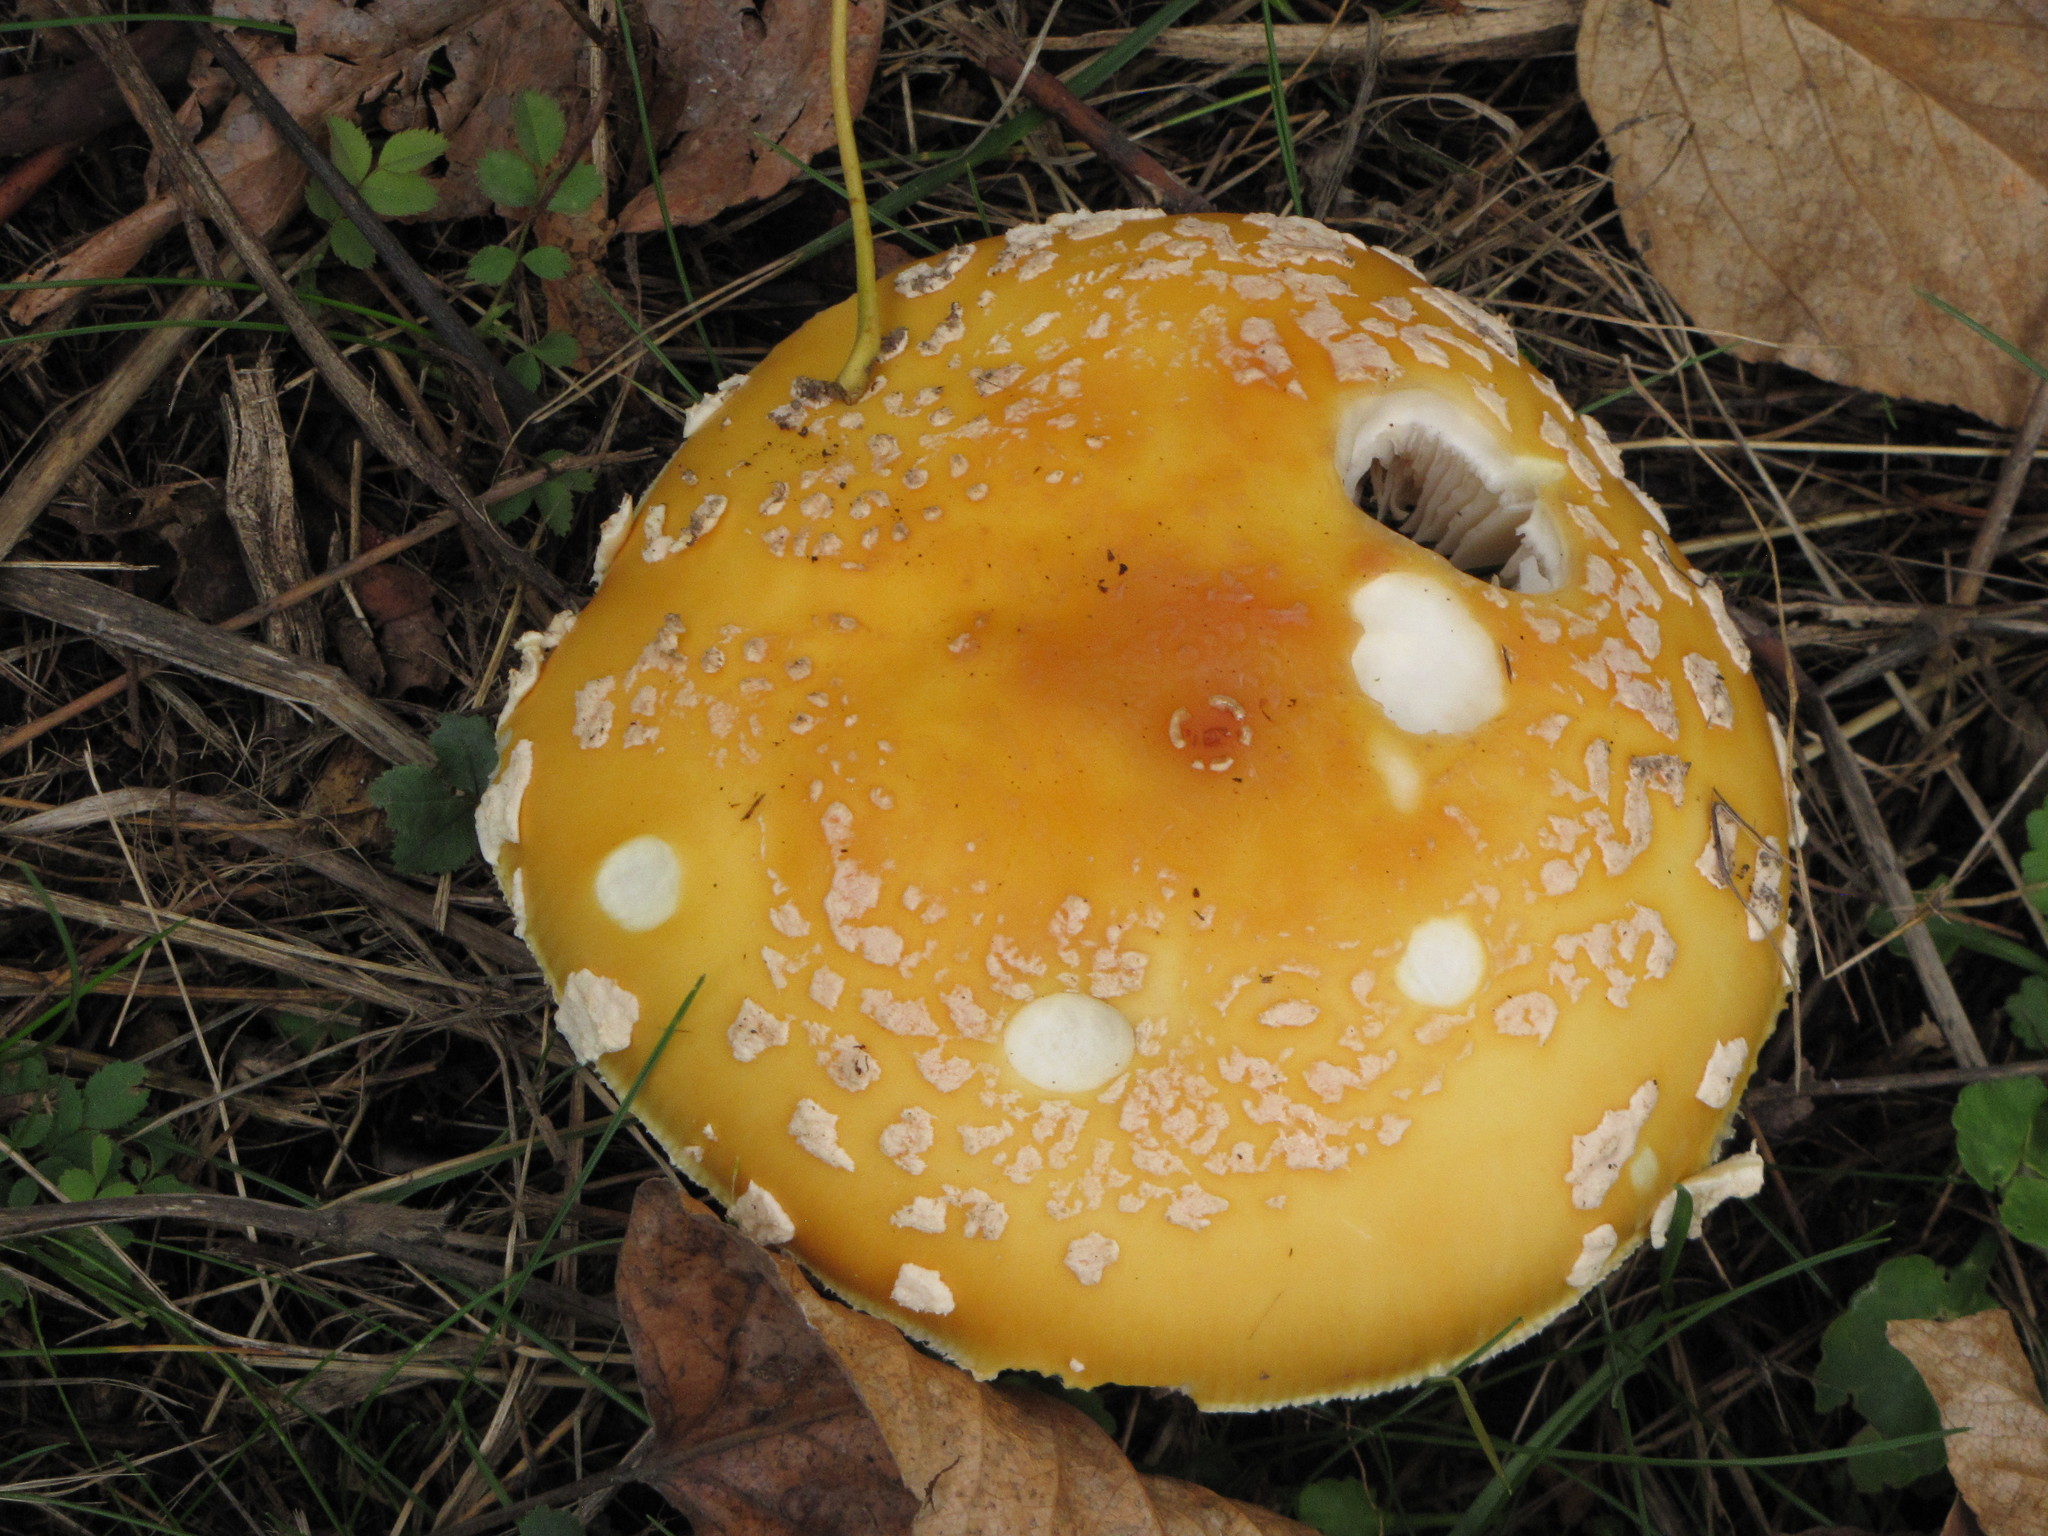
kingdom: Fungi
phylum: Basidiomycota
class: Agaricomycetes
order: Agaricales
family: Amanitaceae
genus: Amanita
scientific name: Amanita muscaria
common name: Fly agaric
